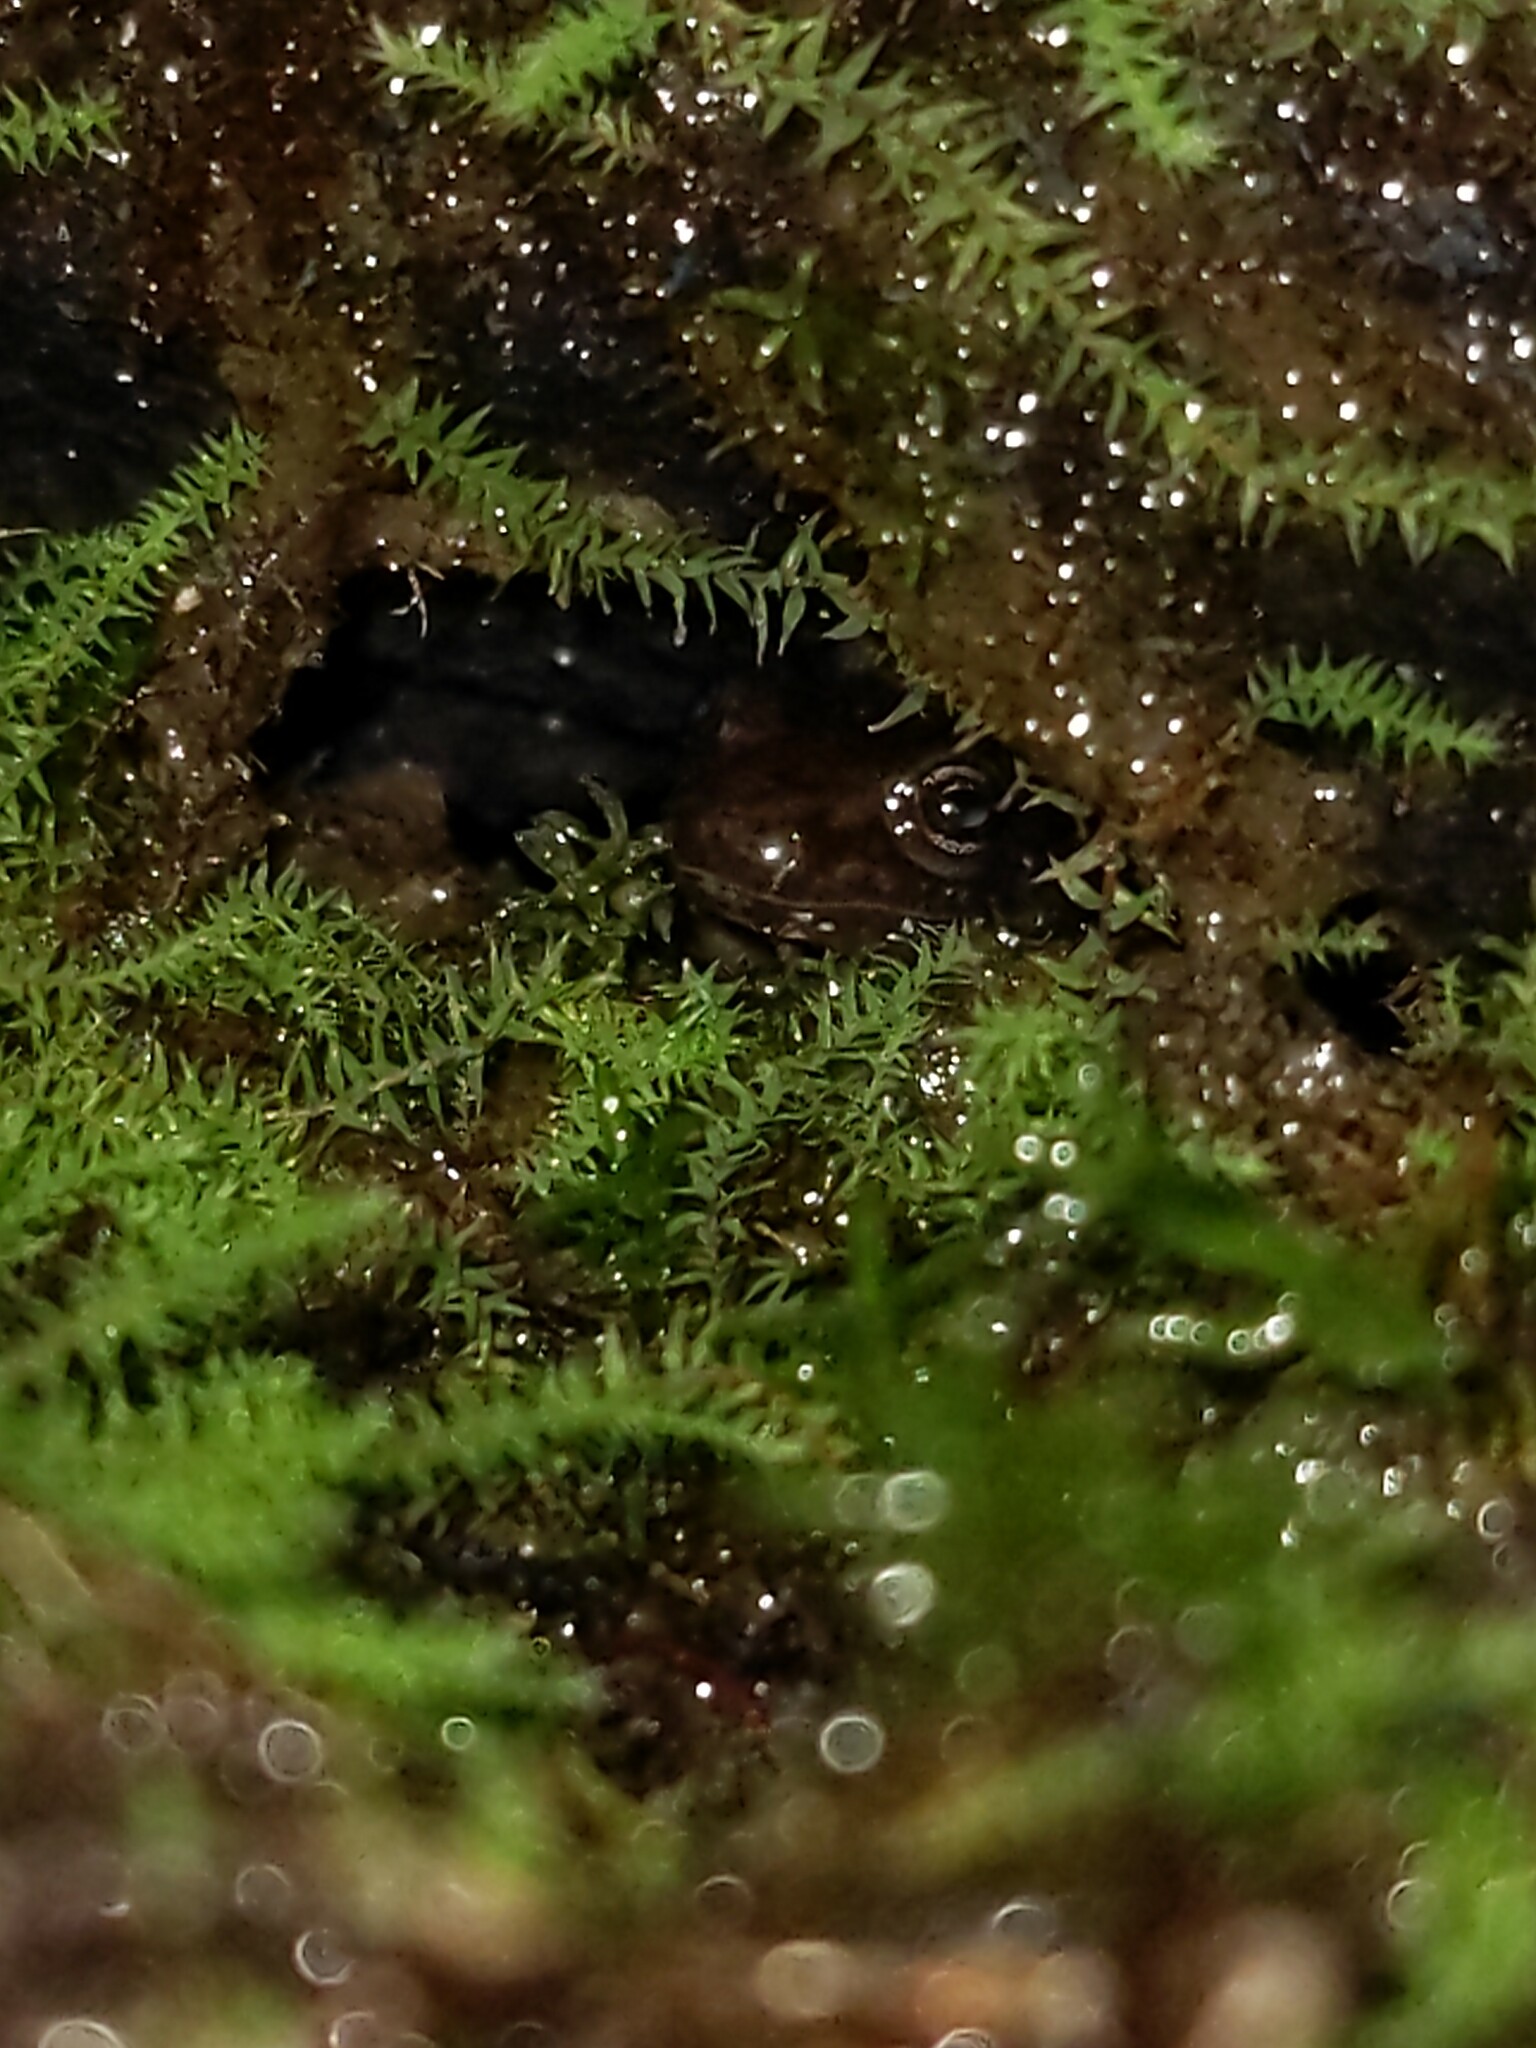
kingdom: Animalia
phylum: Chordata
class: Amphibia
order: Caudata
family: Plethodontidae
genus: Desmognathus
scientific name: Desmognathus ochrophaeus
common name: Allegheny mountain dusky salamander
